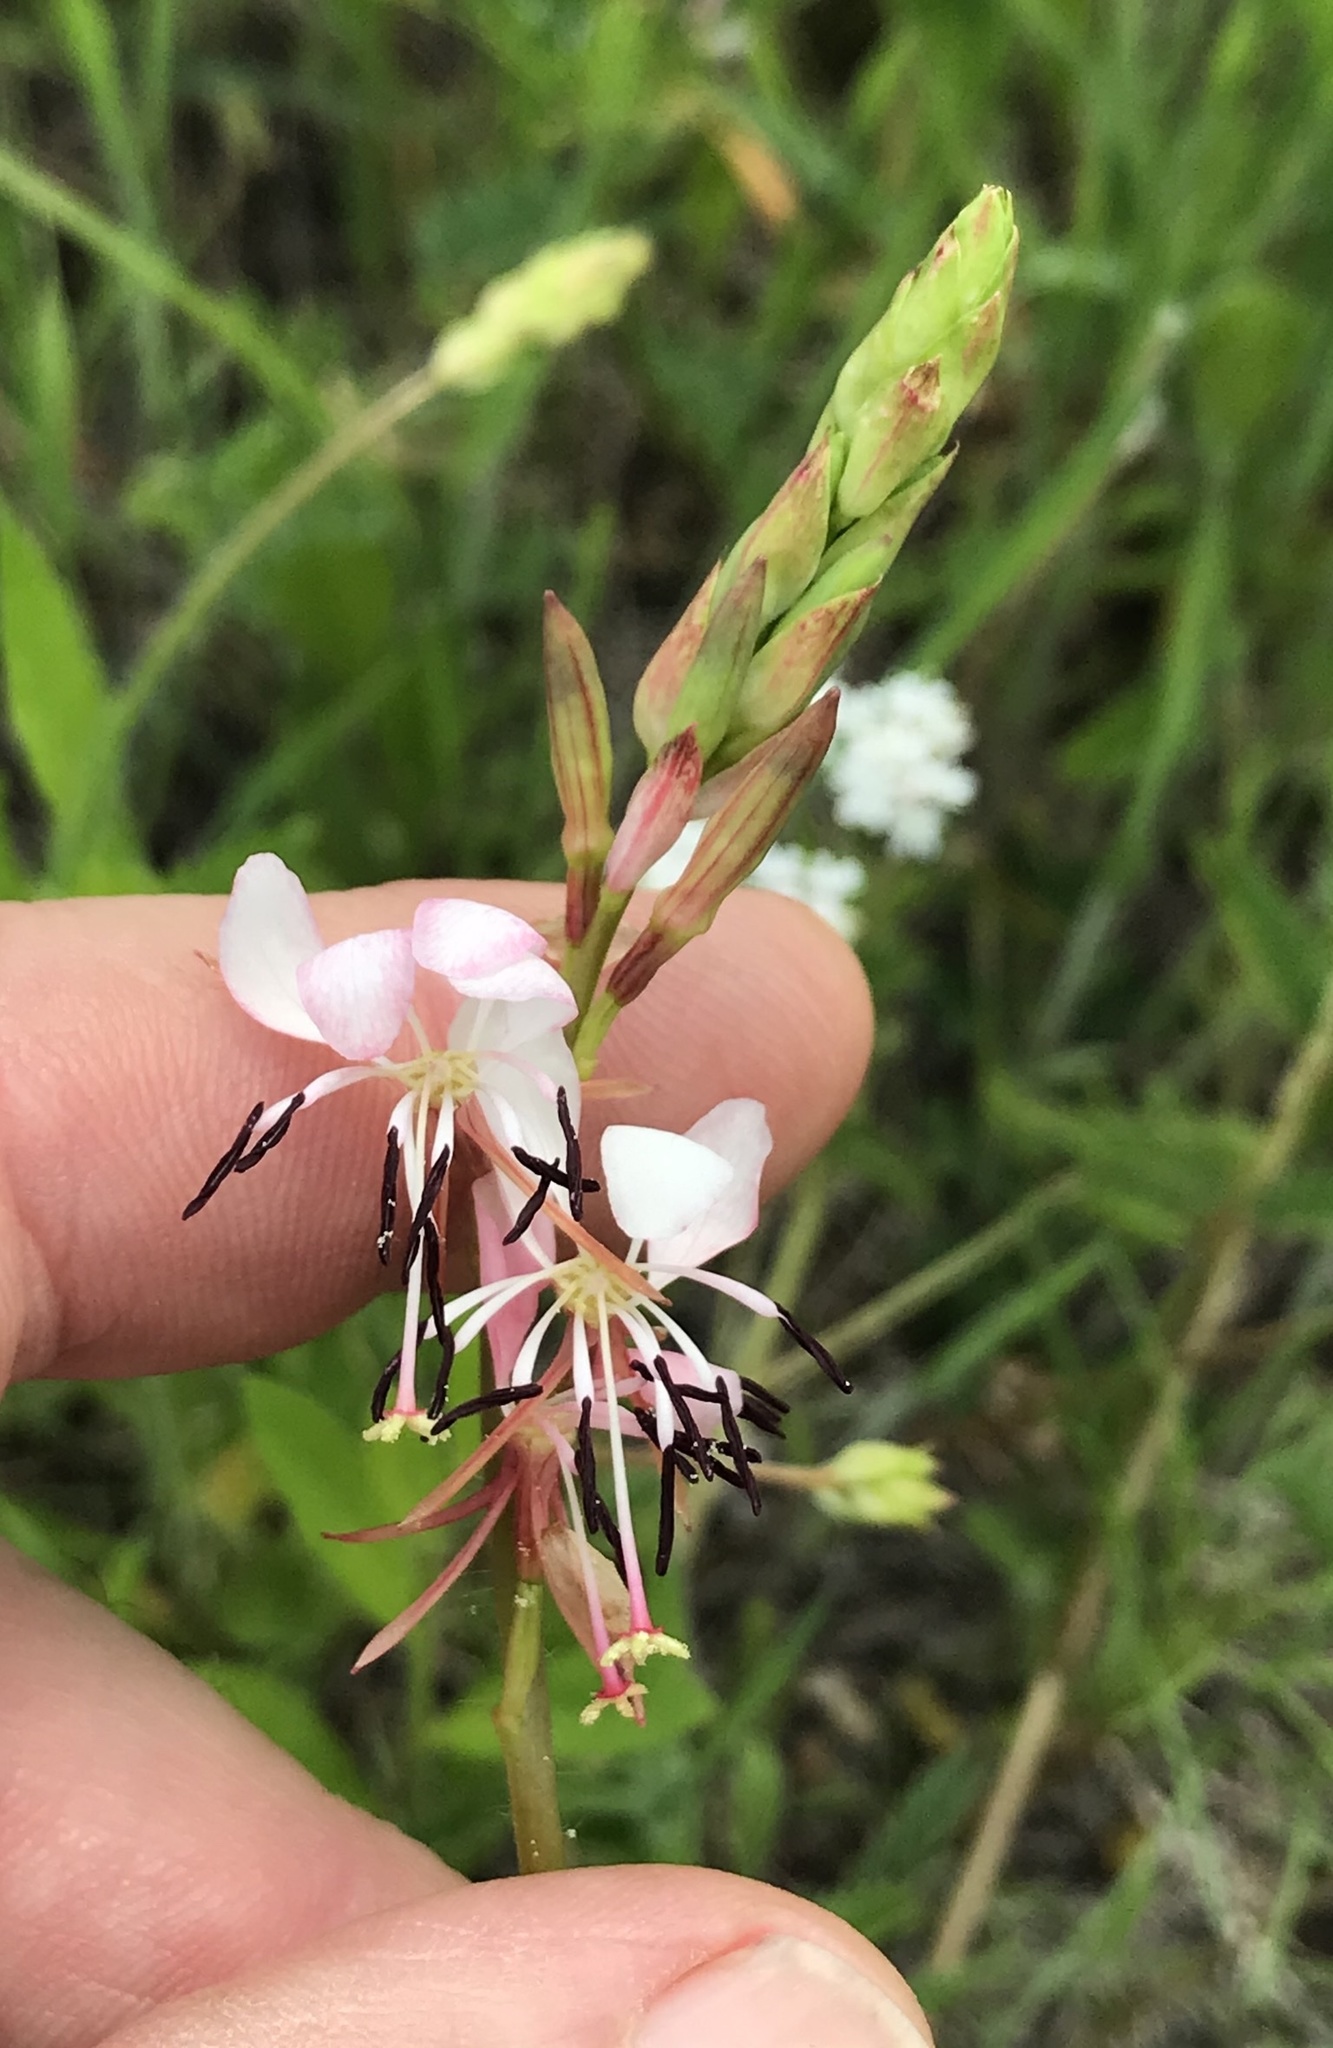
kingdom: Plantae
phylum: Tracheophyta
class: Magnoliopsida
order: Myrtales
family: Onagraceae
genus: Oenothera
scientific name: Oenothera suffulta
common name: Kisses
